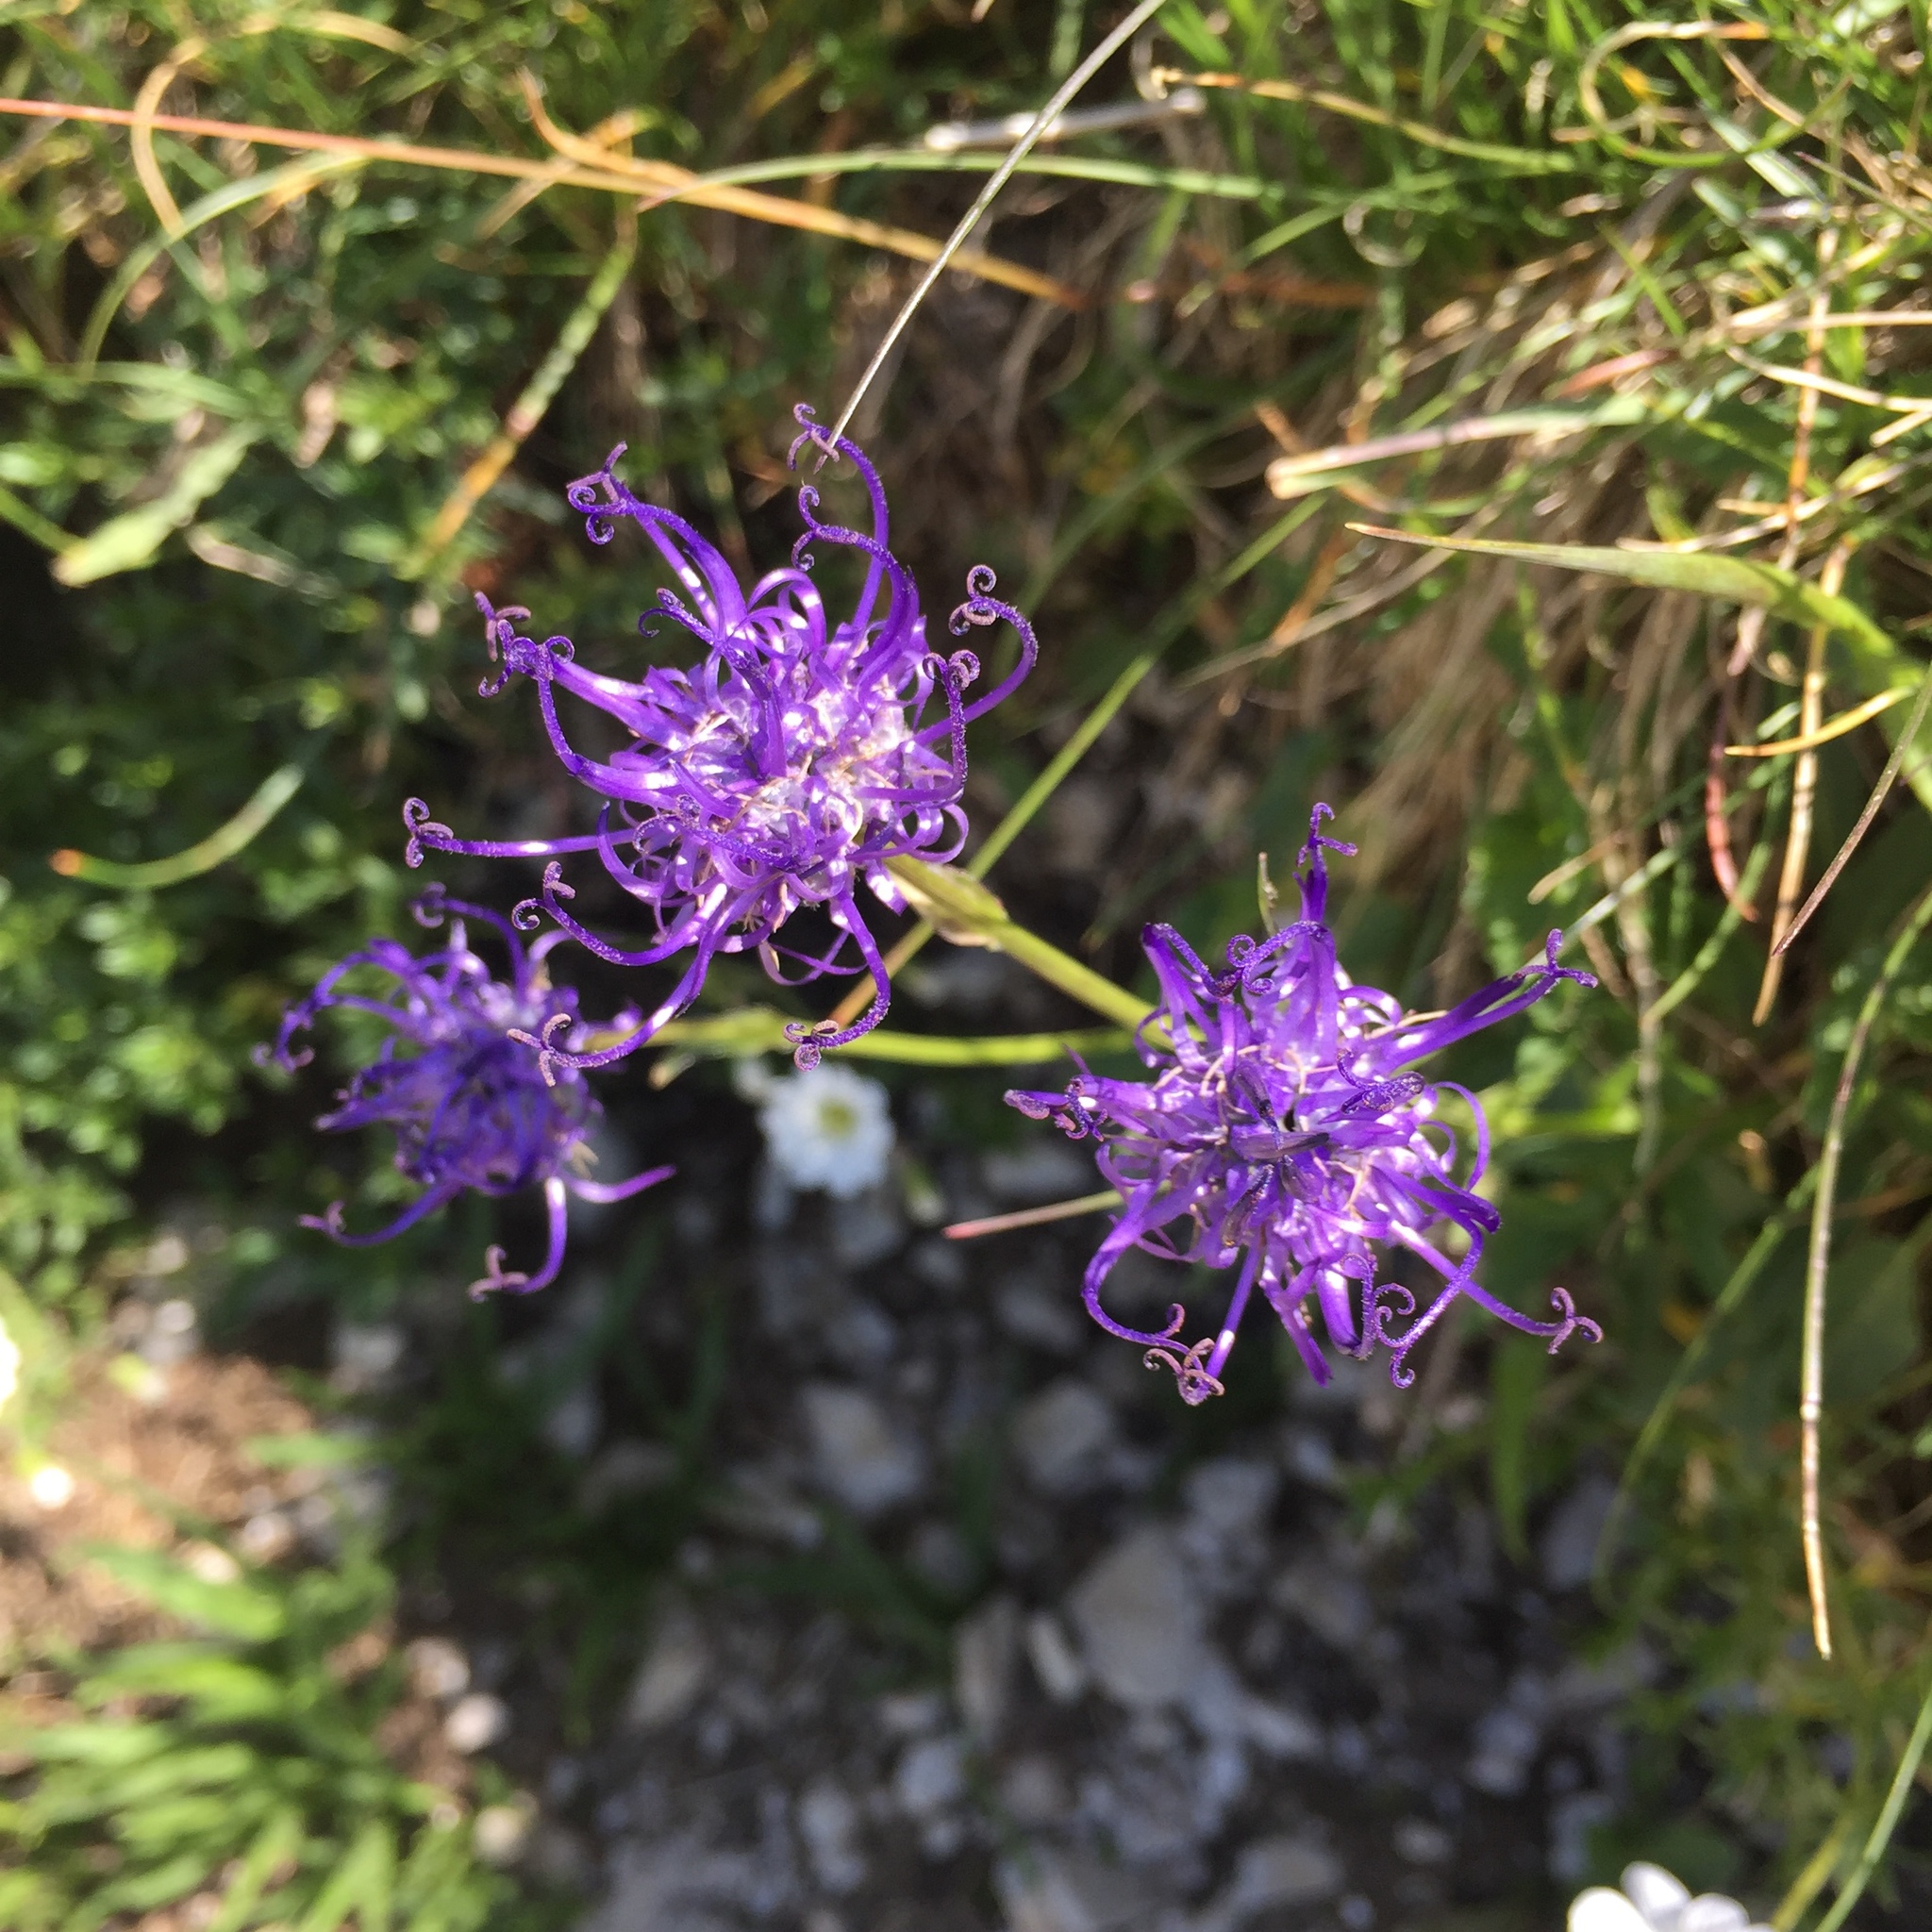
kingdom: Plantae
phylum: Tracheophyta
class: Magnoliopsida
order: Asterales
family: Campanulaceae
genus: Phyteuma
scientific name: Phyteuma orbiculare
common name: Round-headed rampion
